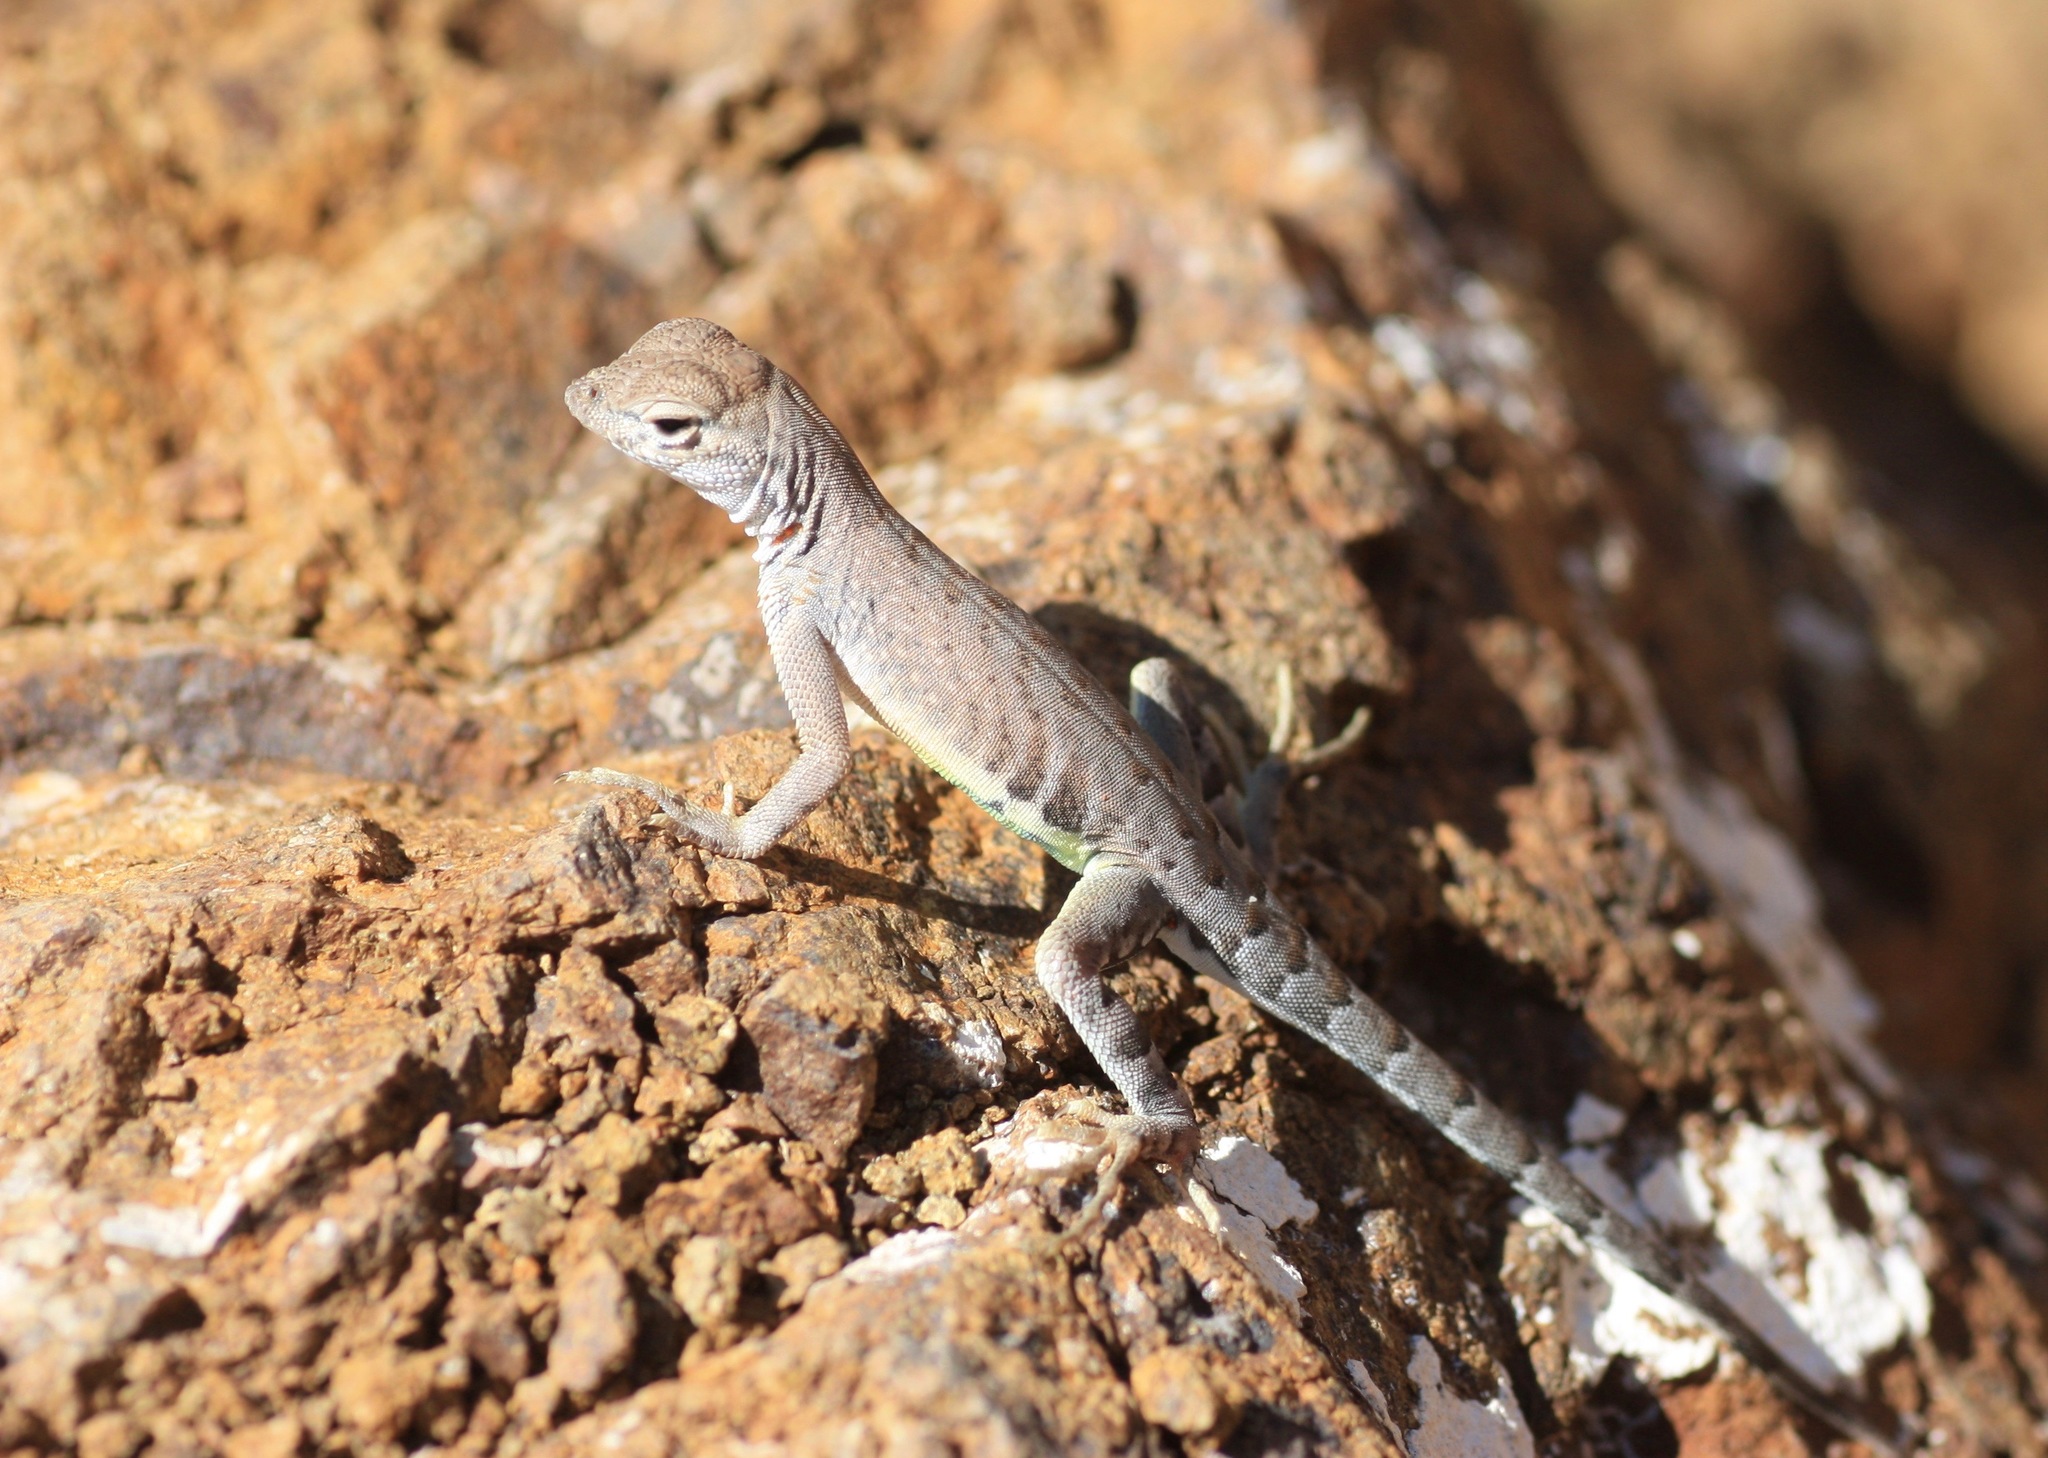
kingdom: Animalia
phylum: Chordata
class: Squamata
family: Phrynosomatidae
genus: Cophosaurus
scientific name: Cophosaurus texanus
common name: Greater earless lizard
